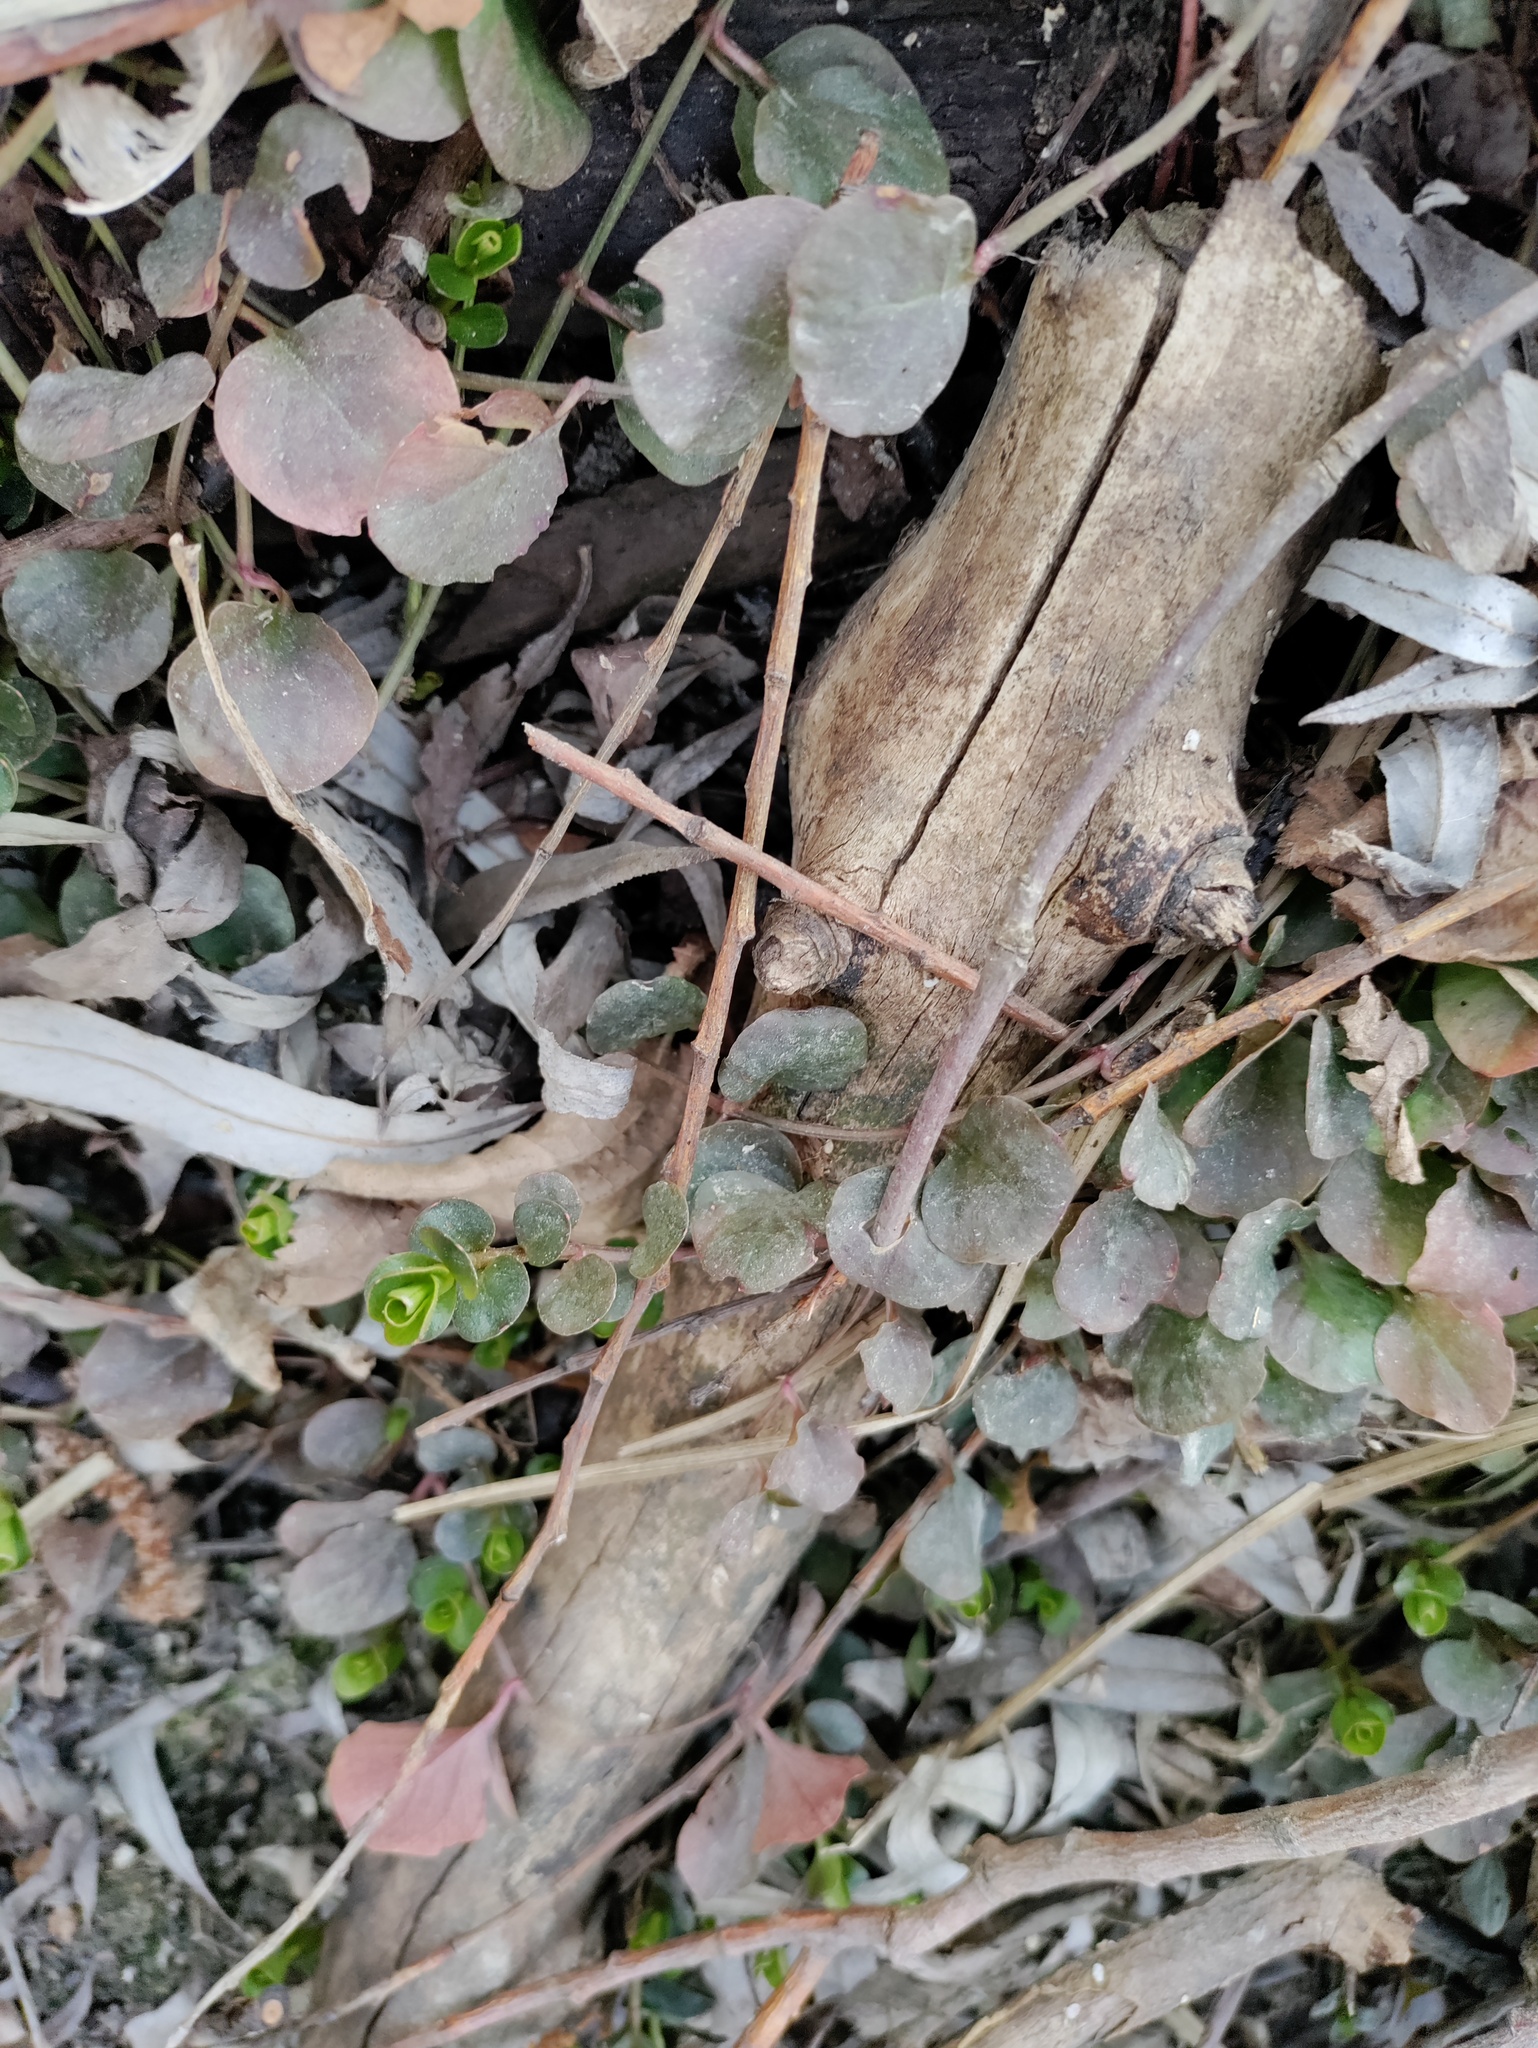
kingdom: Plantae
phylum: Tracheophyta
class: Magnoliopsida
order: Ericales
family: Primulaceae
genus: Lysimachia
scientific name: Lysimachia nummularia
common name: Moneywort
